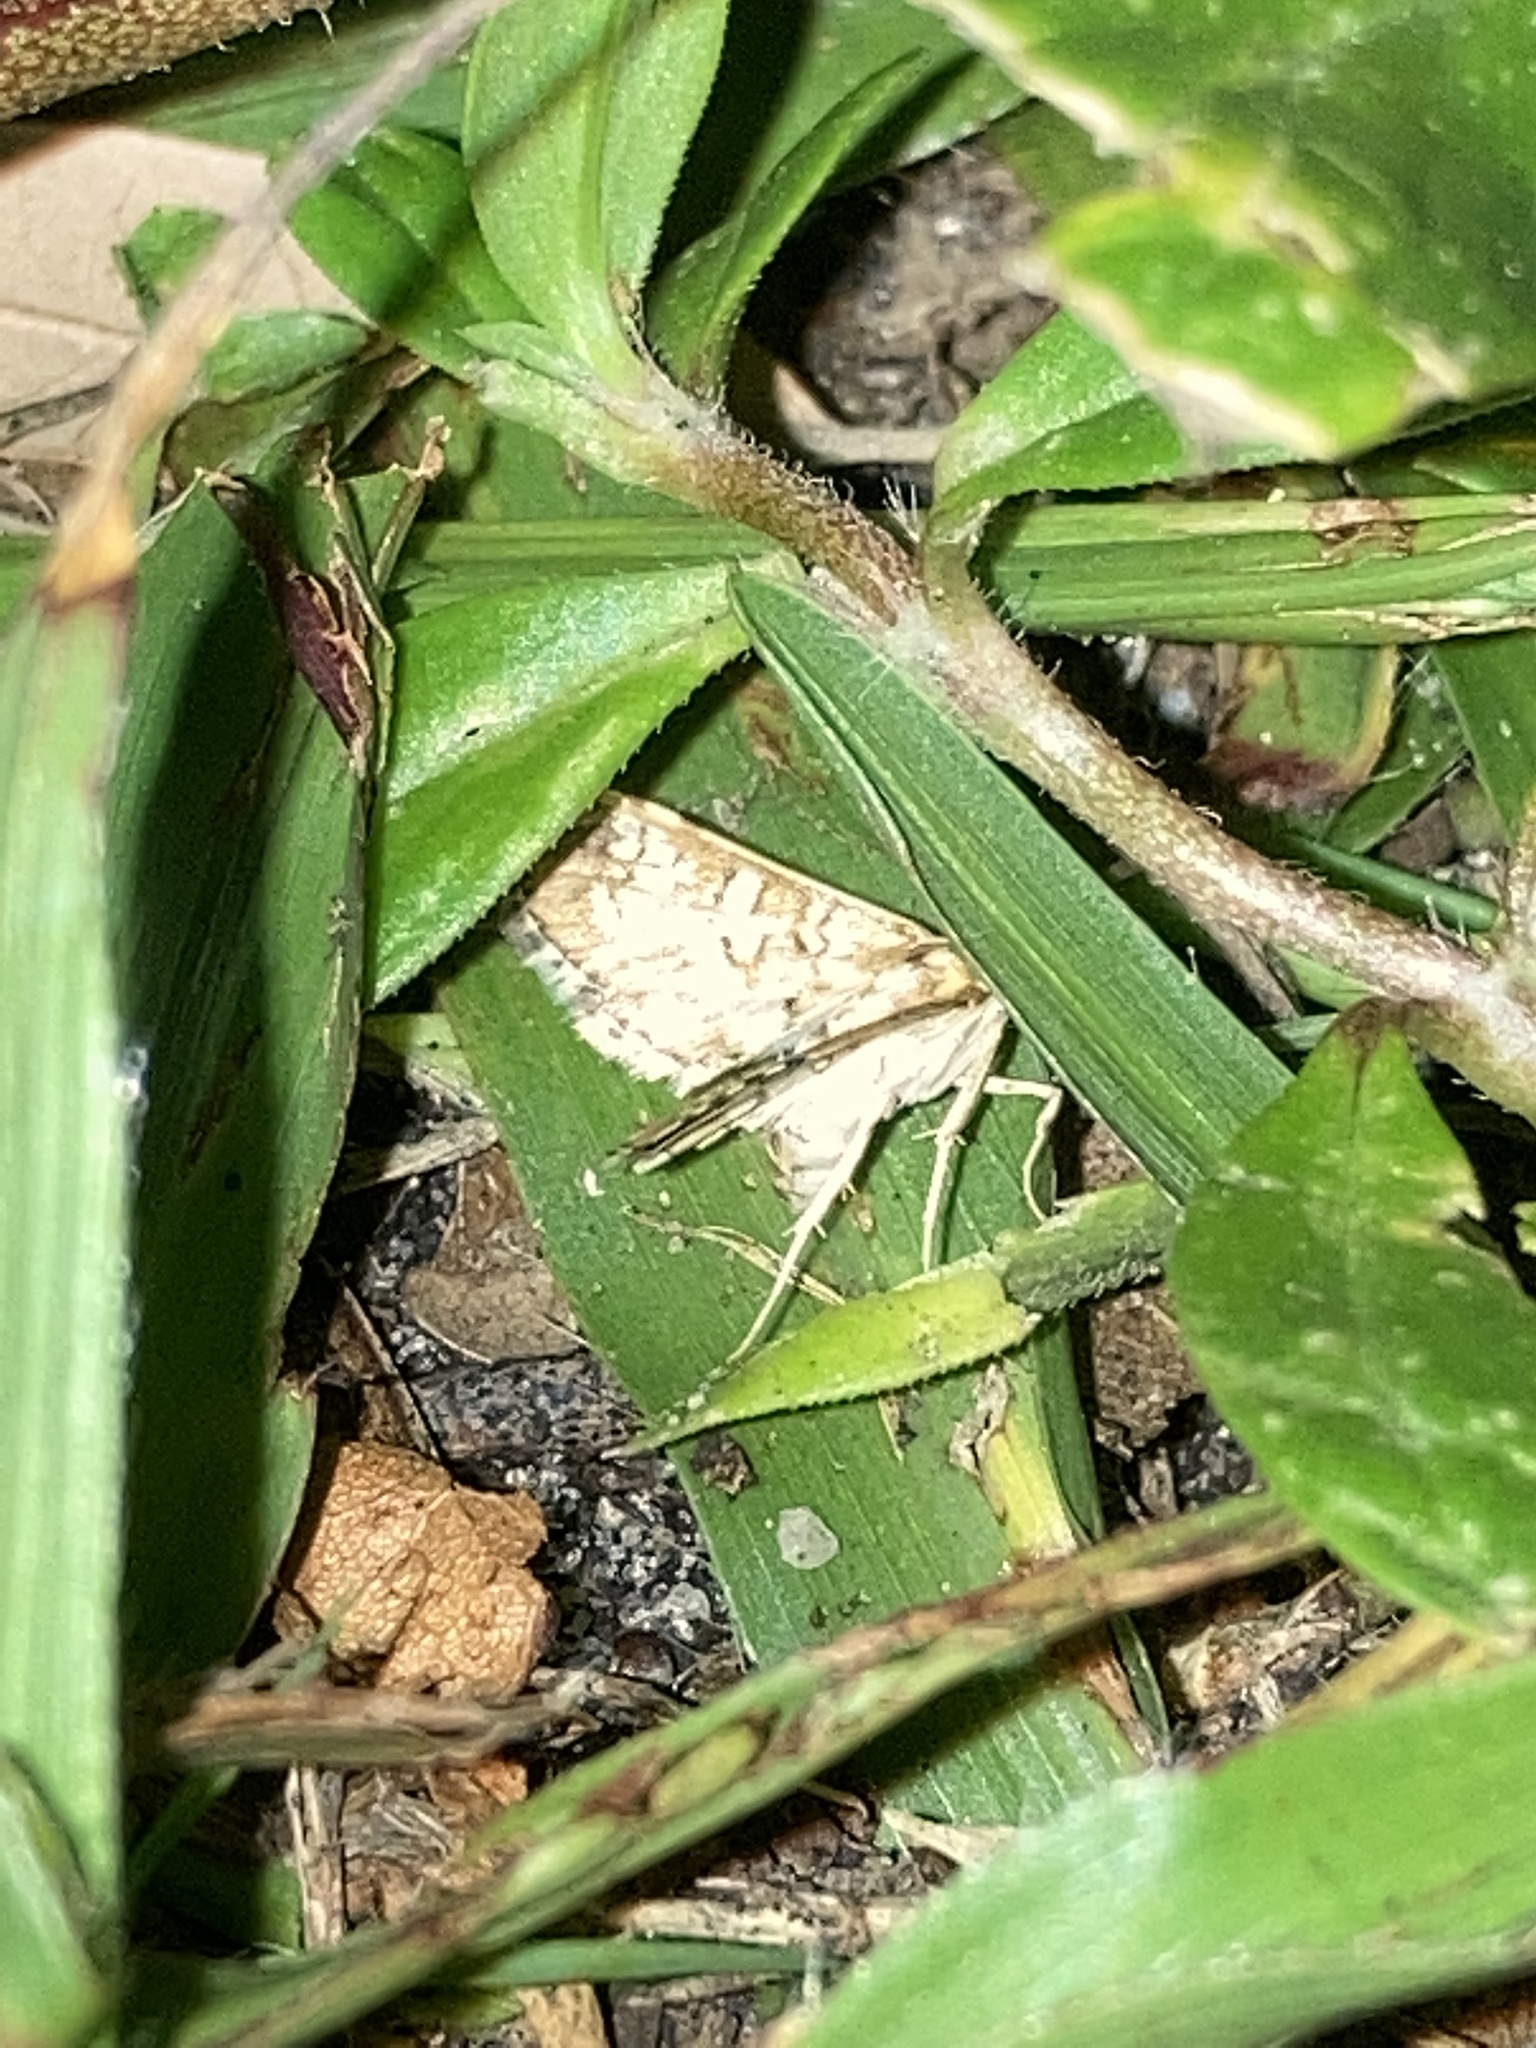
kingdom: Animalia
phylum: Arthropoda
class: Insecta
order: Lepidoptera
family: Crambidae
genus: Samea
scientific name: Samea ecclesialis
